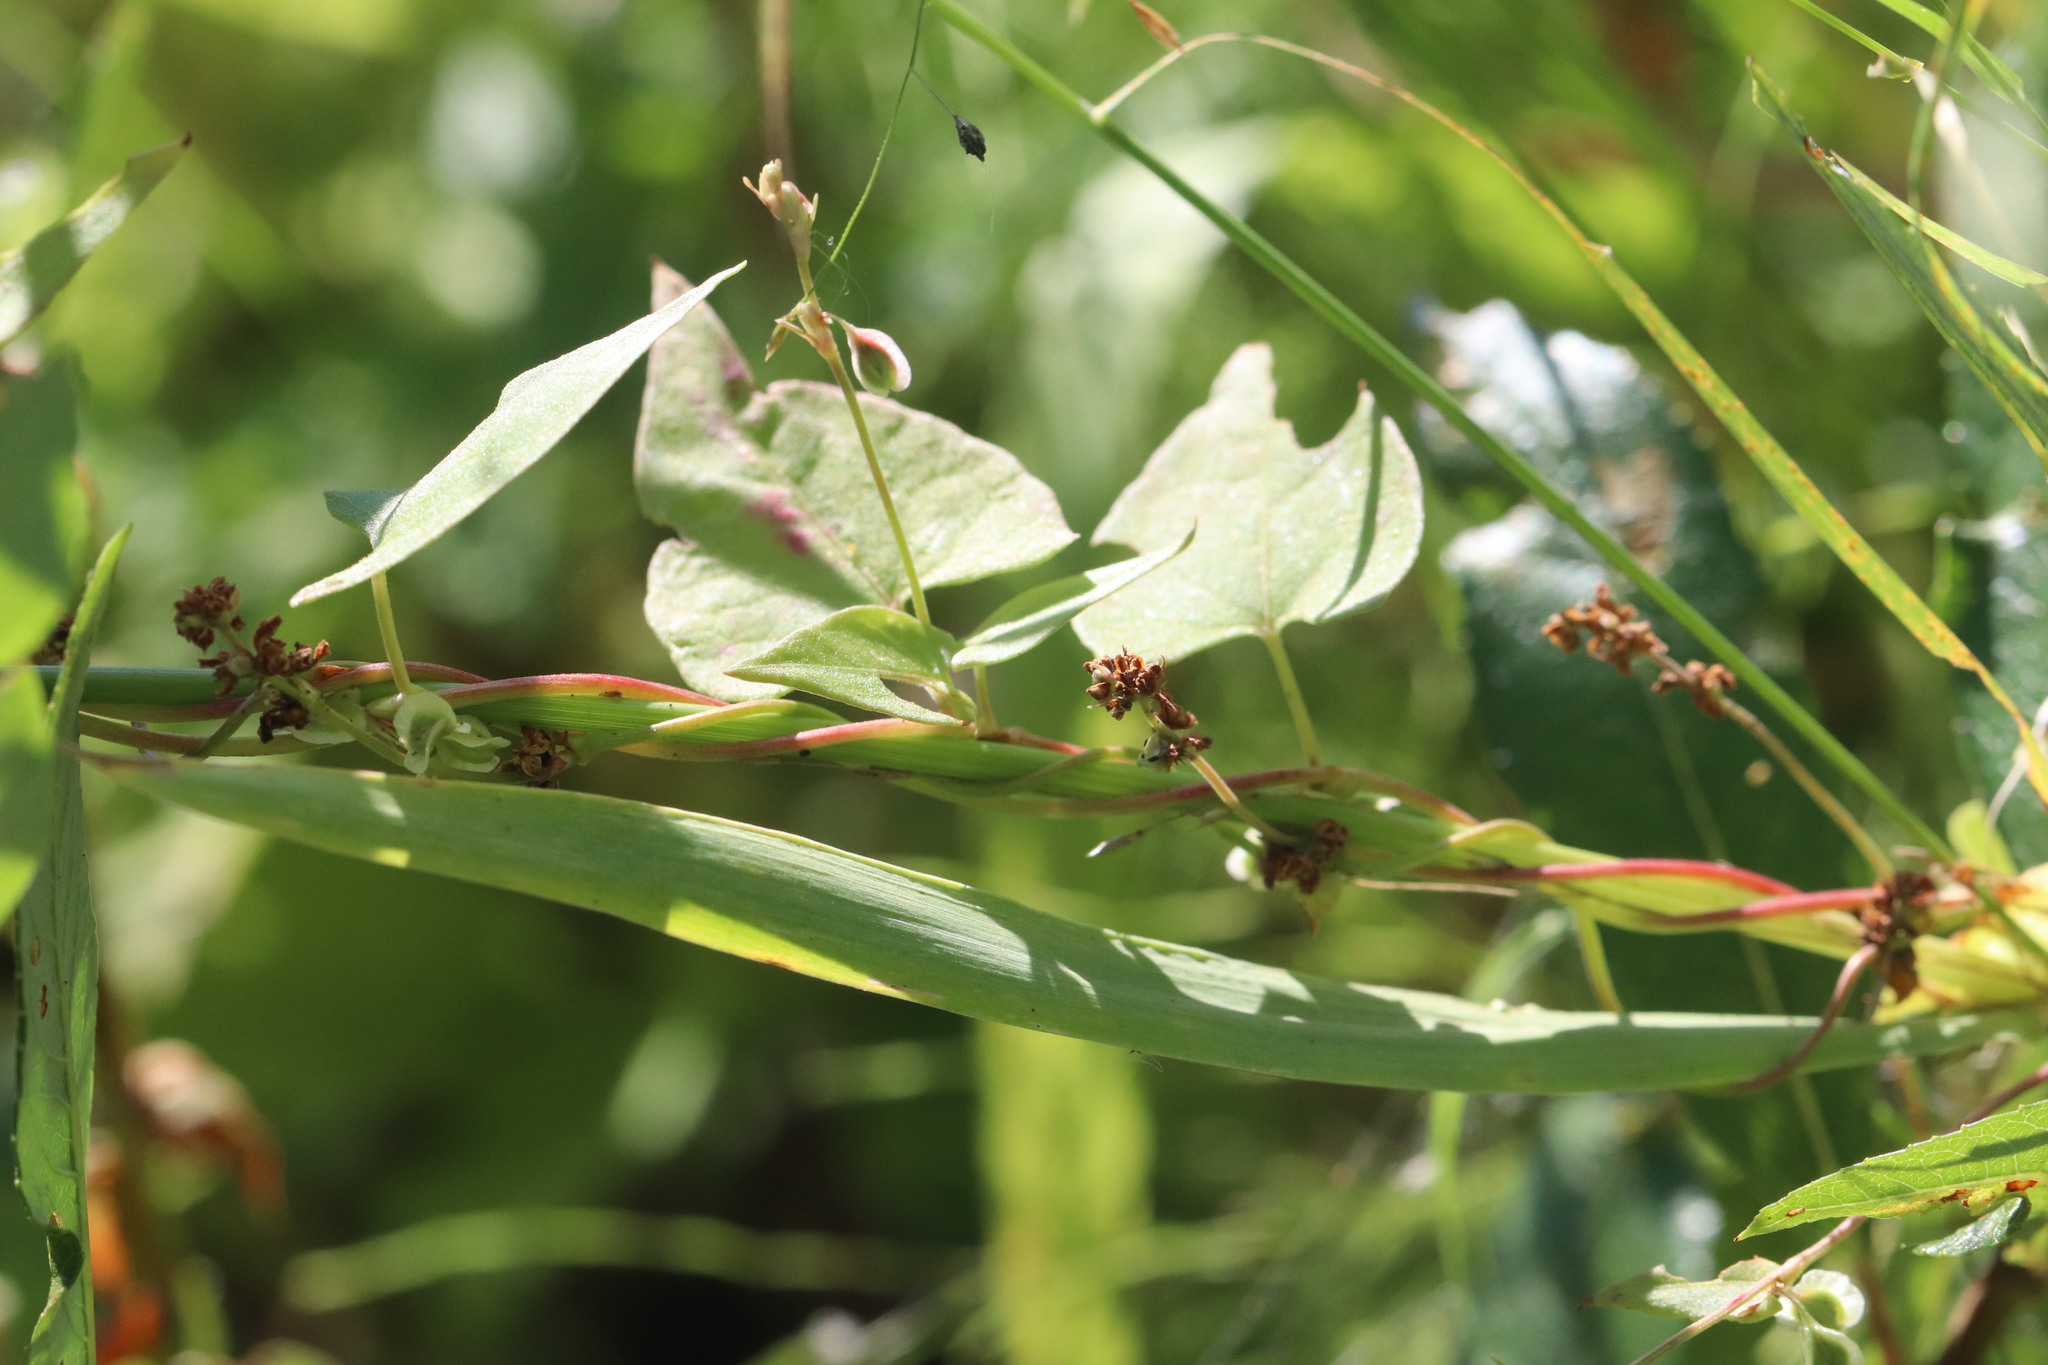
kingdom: Plantae
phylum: Tracheophyta
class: Magnoliopsida
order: Caryophyllales
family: Polygonaceae
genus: Fallopia
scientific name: Fallopia dumetorum
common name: Copse-bindweed
